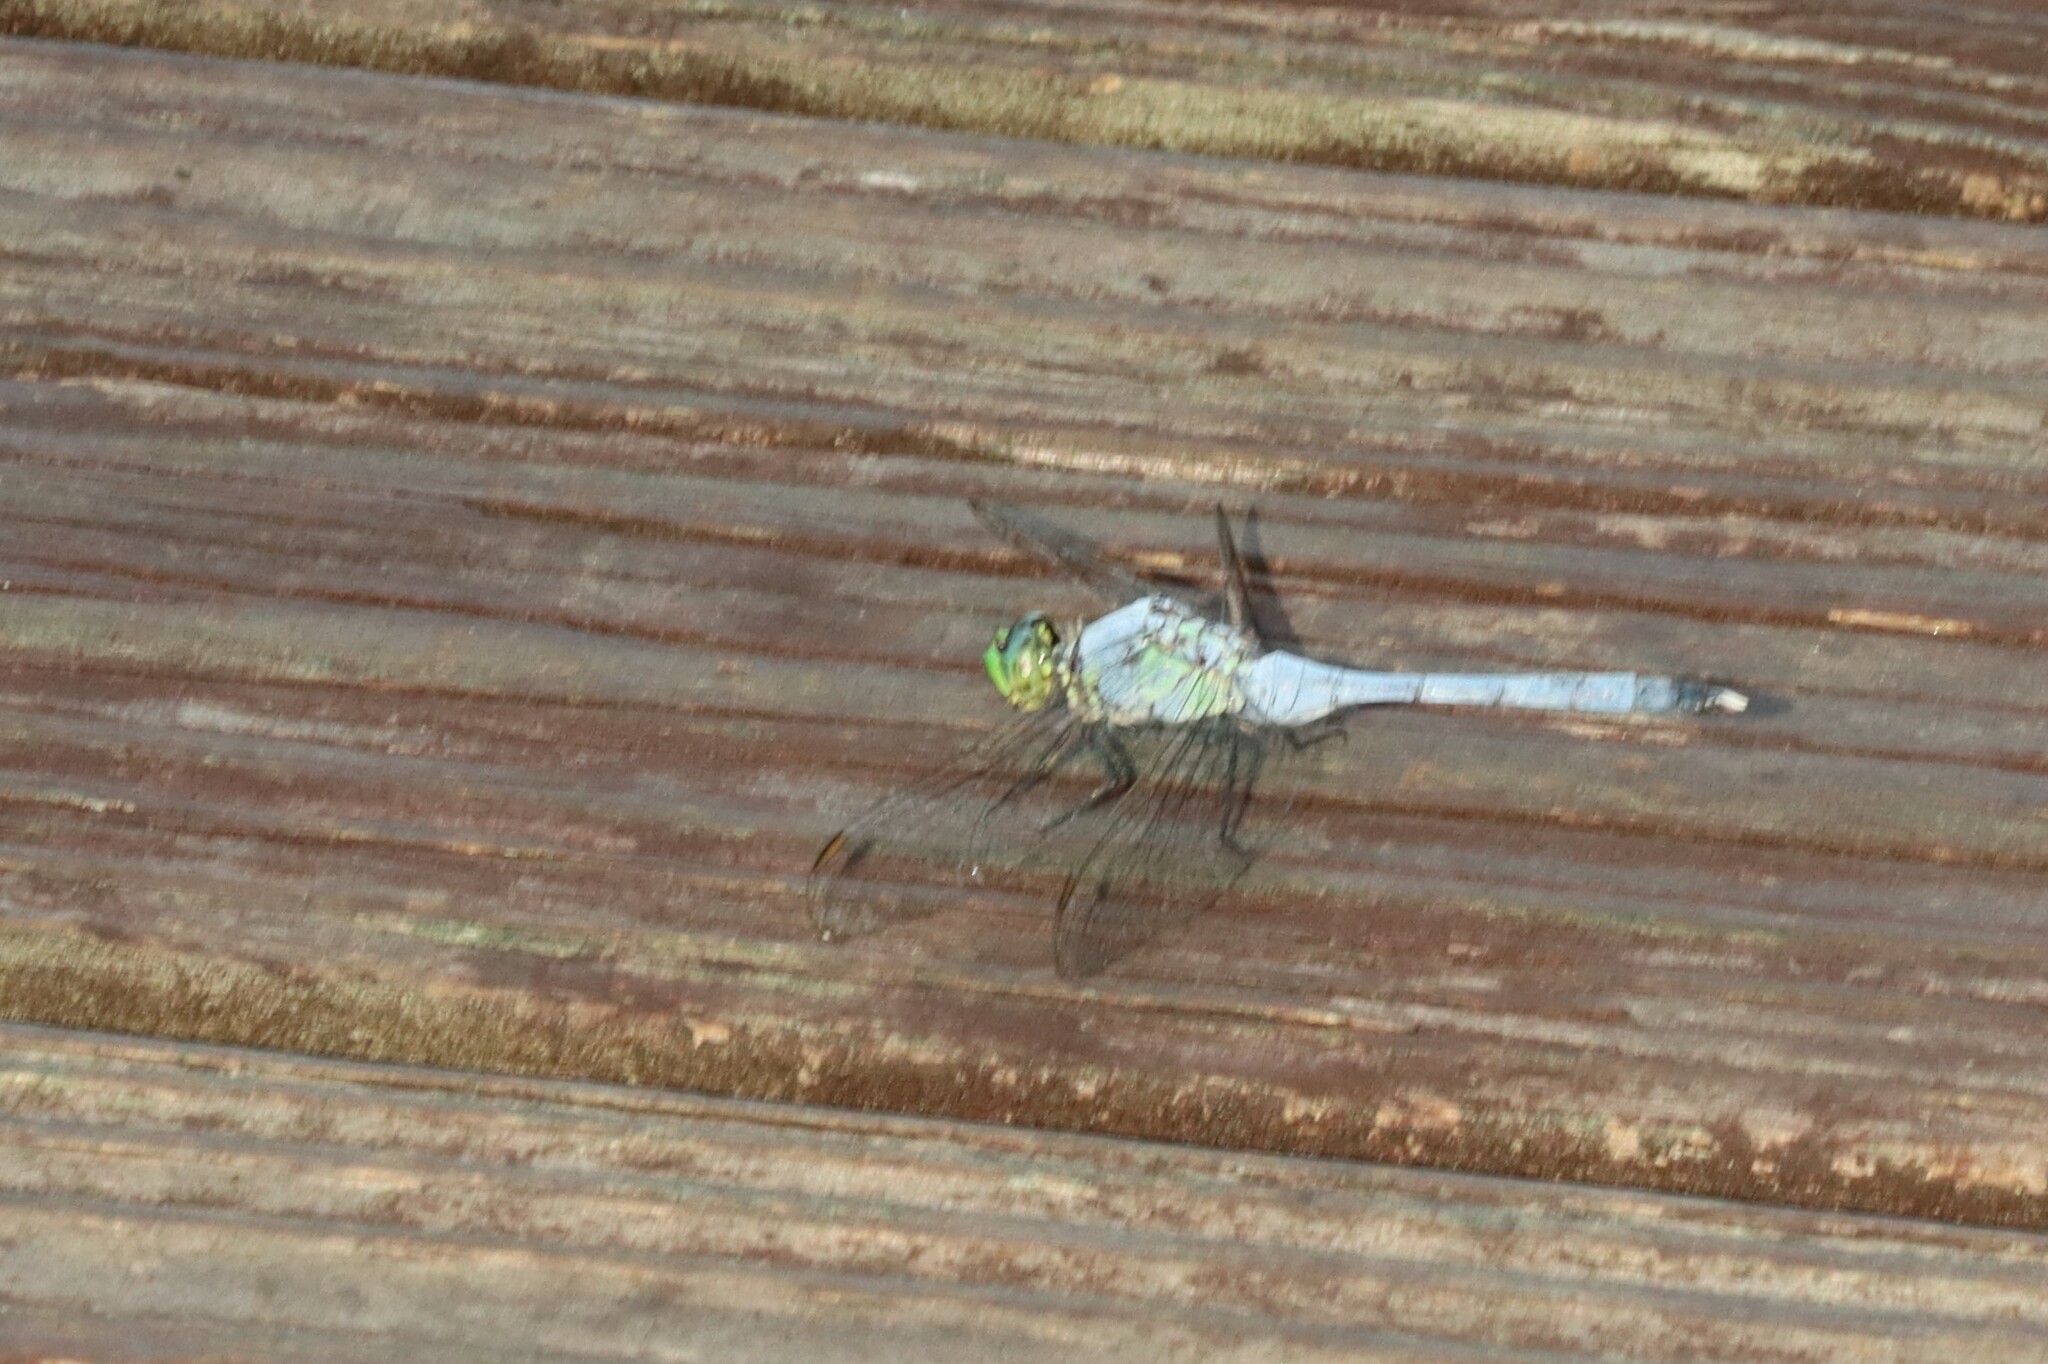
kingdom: Animalia
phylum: Arthropoda
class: Insecta
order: Odonata
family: Libellulidae
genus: Erythemis
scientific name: Erythemis simplicicollis
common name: Eastern pondhawk
